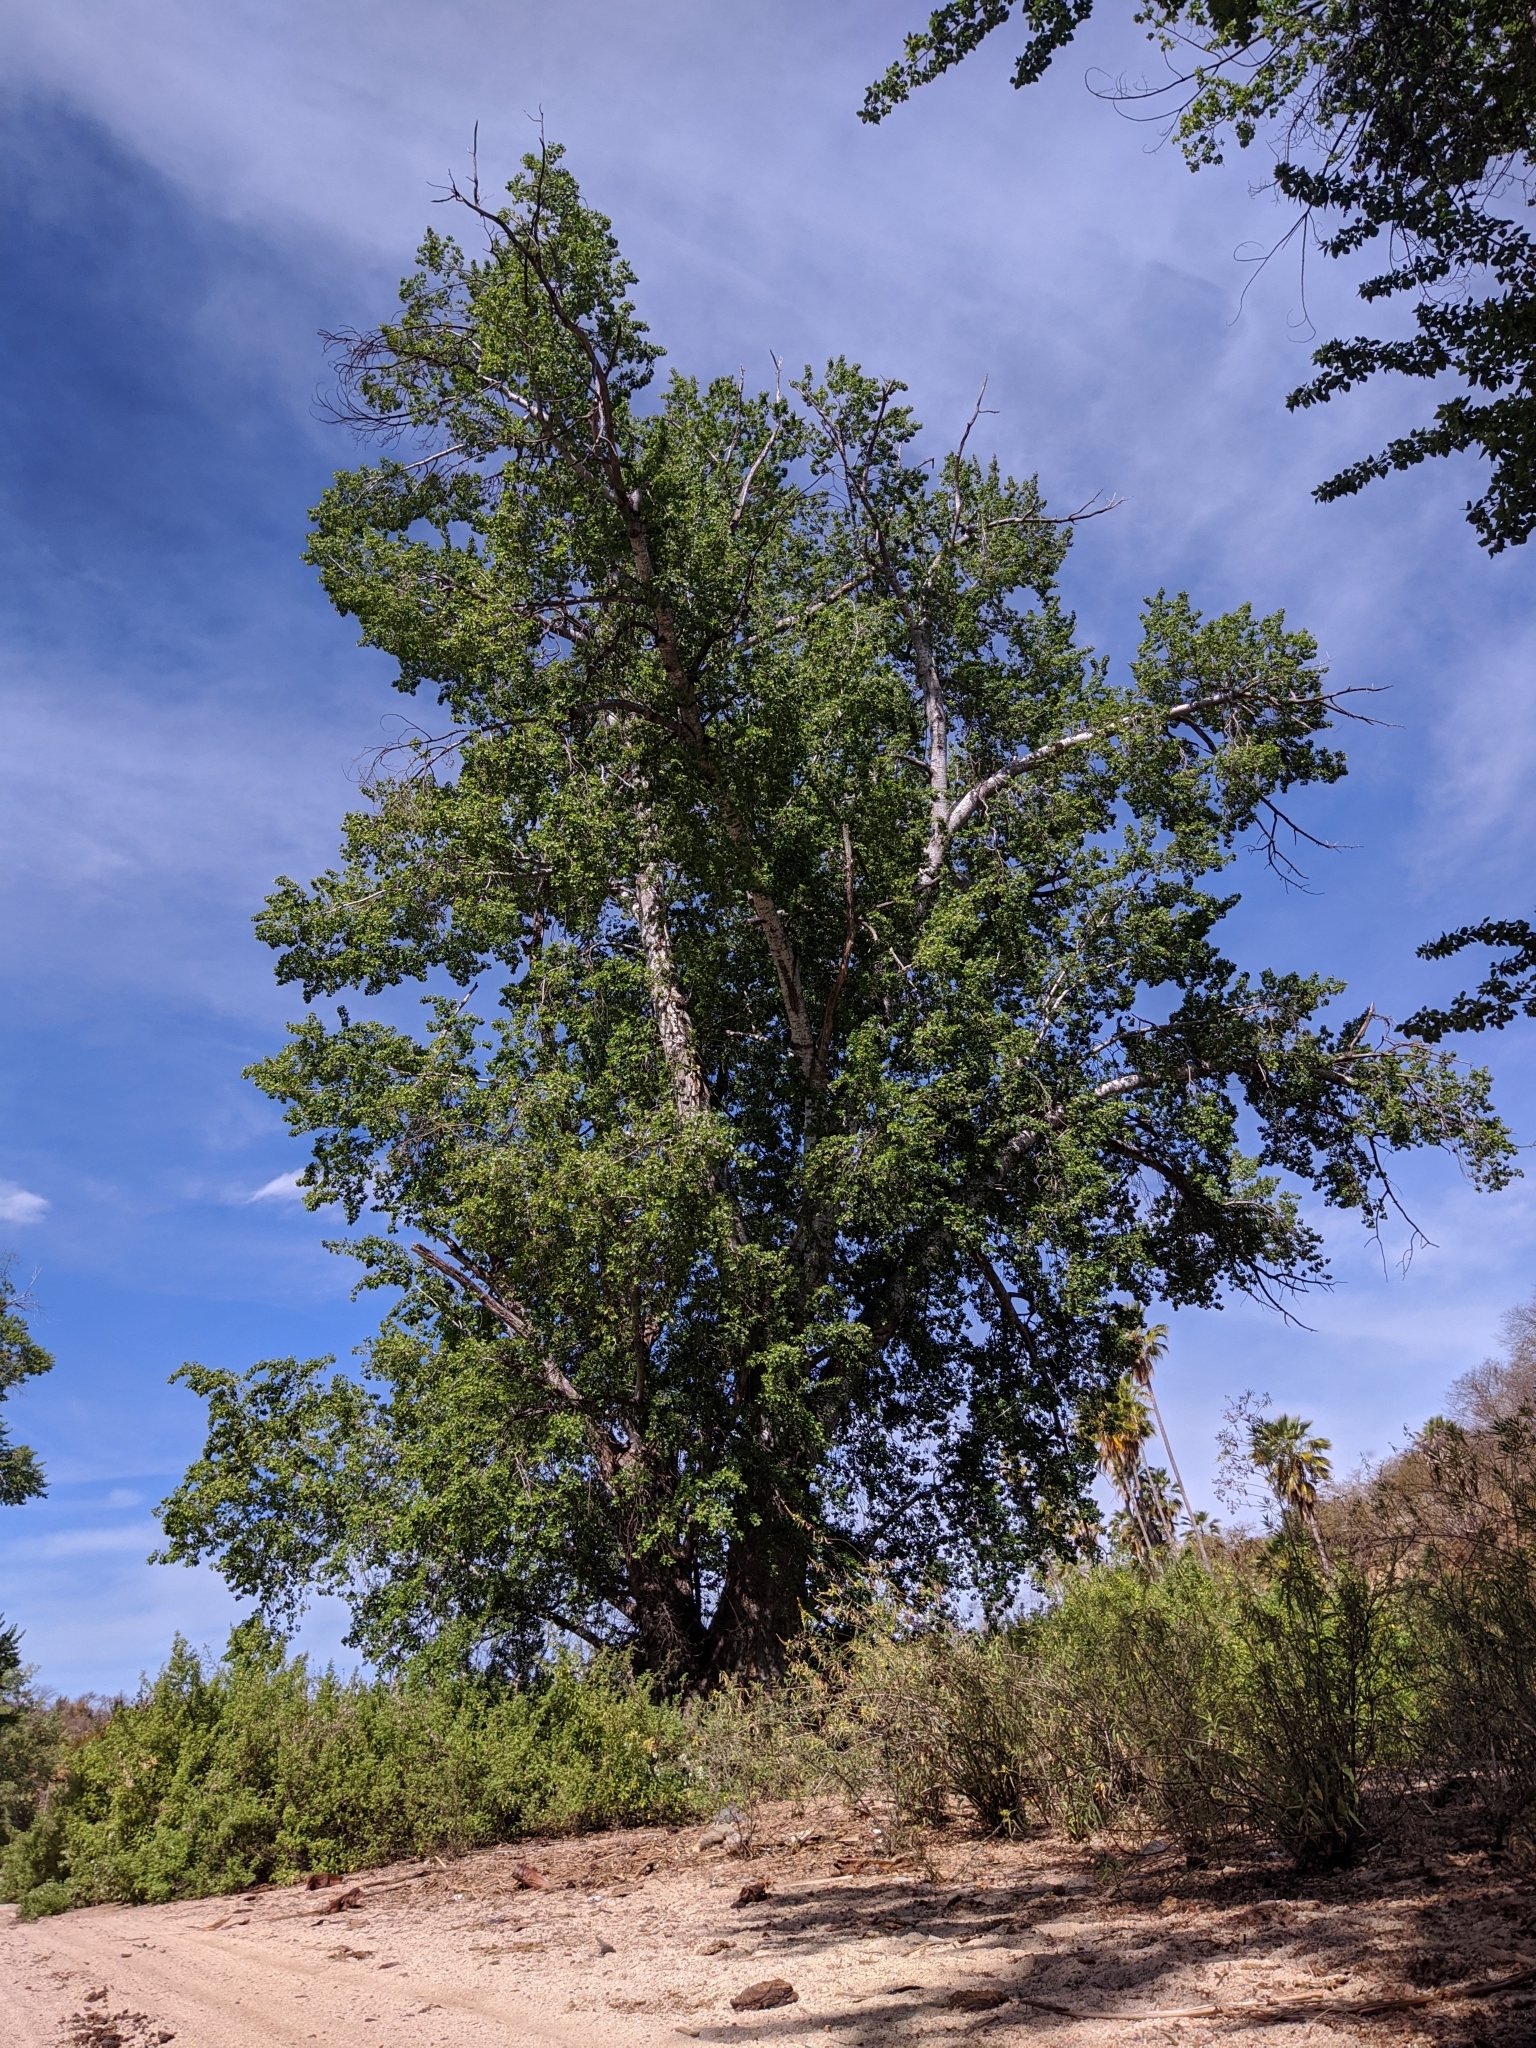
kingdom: Plantae
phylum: Tracheophyta
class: Magnoliopsida
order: Malpighiales
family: Salicaceae
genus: Populus
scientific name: Populus brandegeei
